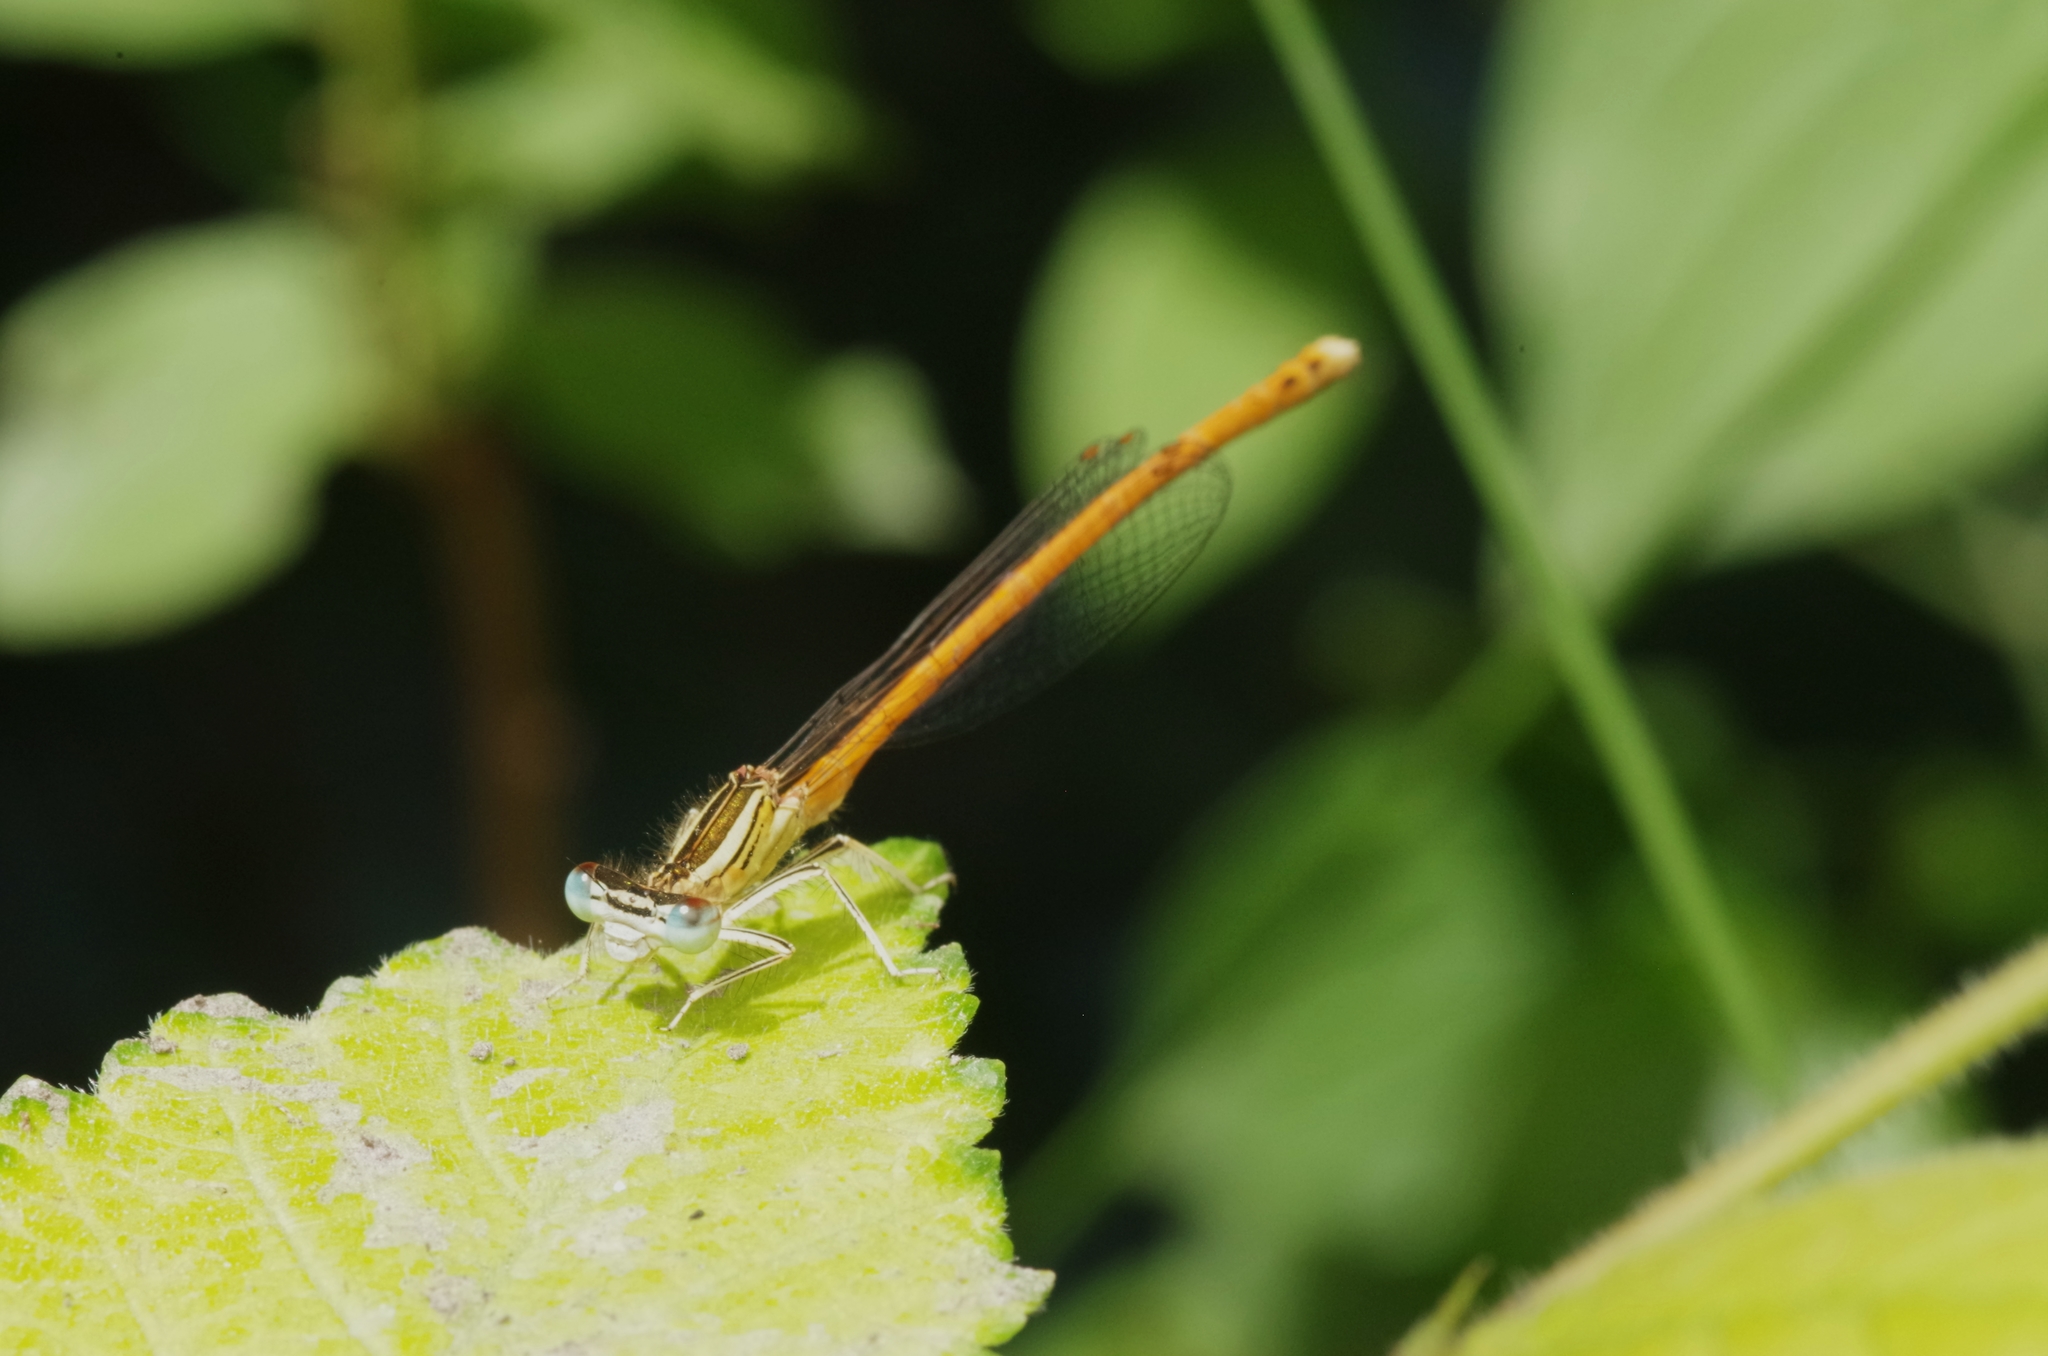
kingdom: Animalia
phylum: Arthropoda
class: Insecta
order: Odonata
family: Platycnemididae
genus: Platycnemis
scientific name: Platycnemis acutipennis
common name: Orange featherleg
